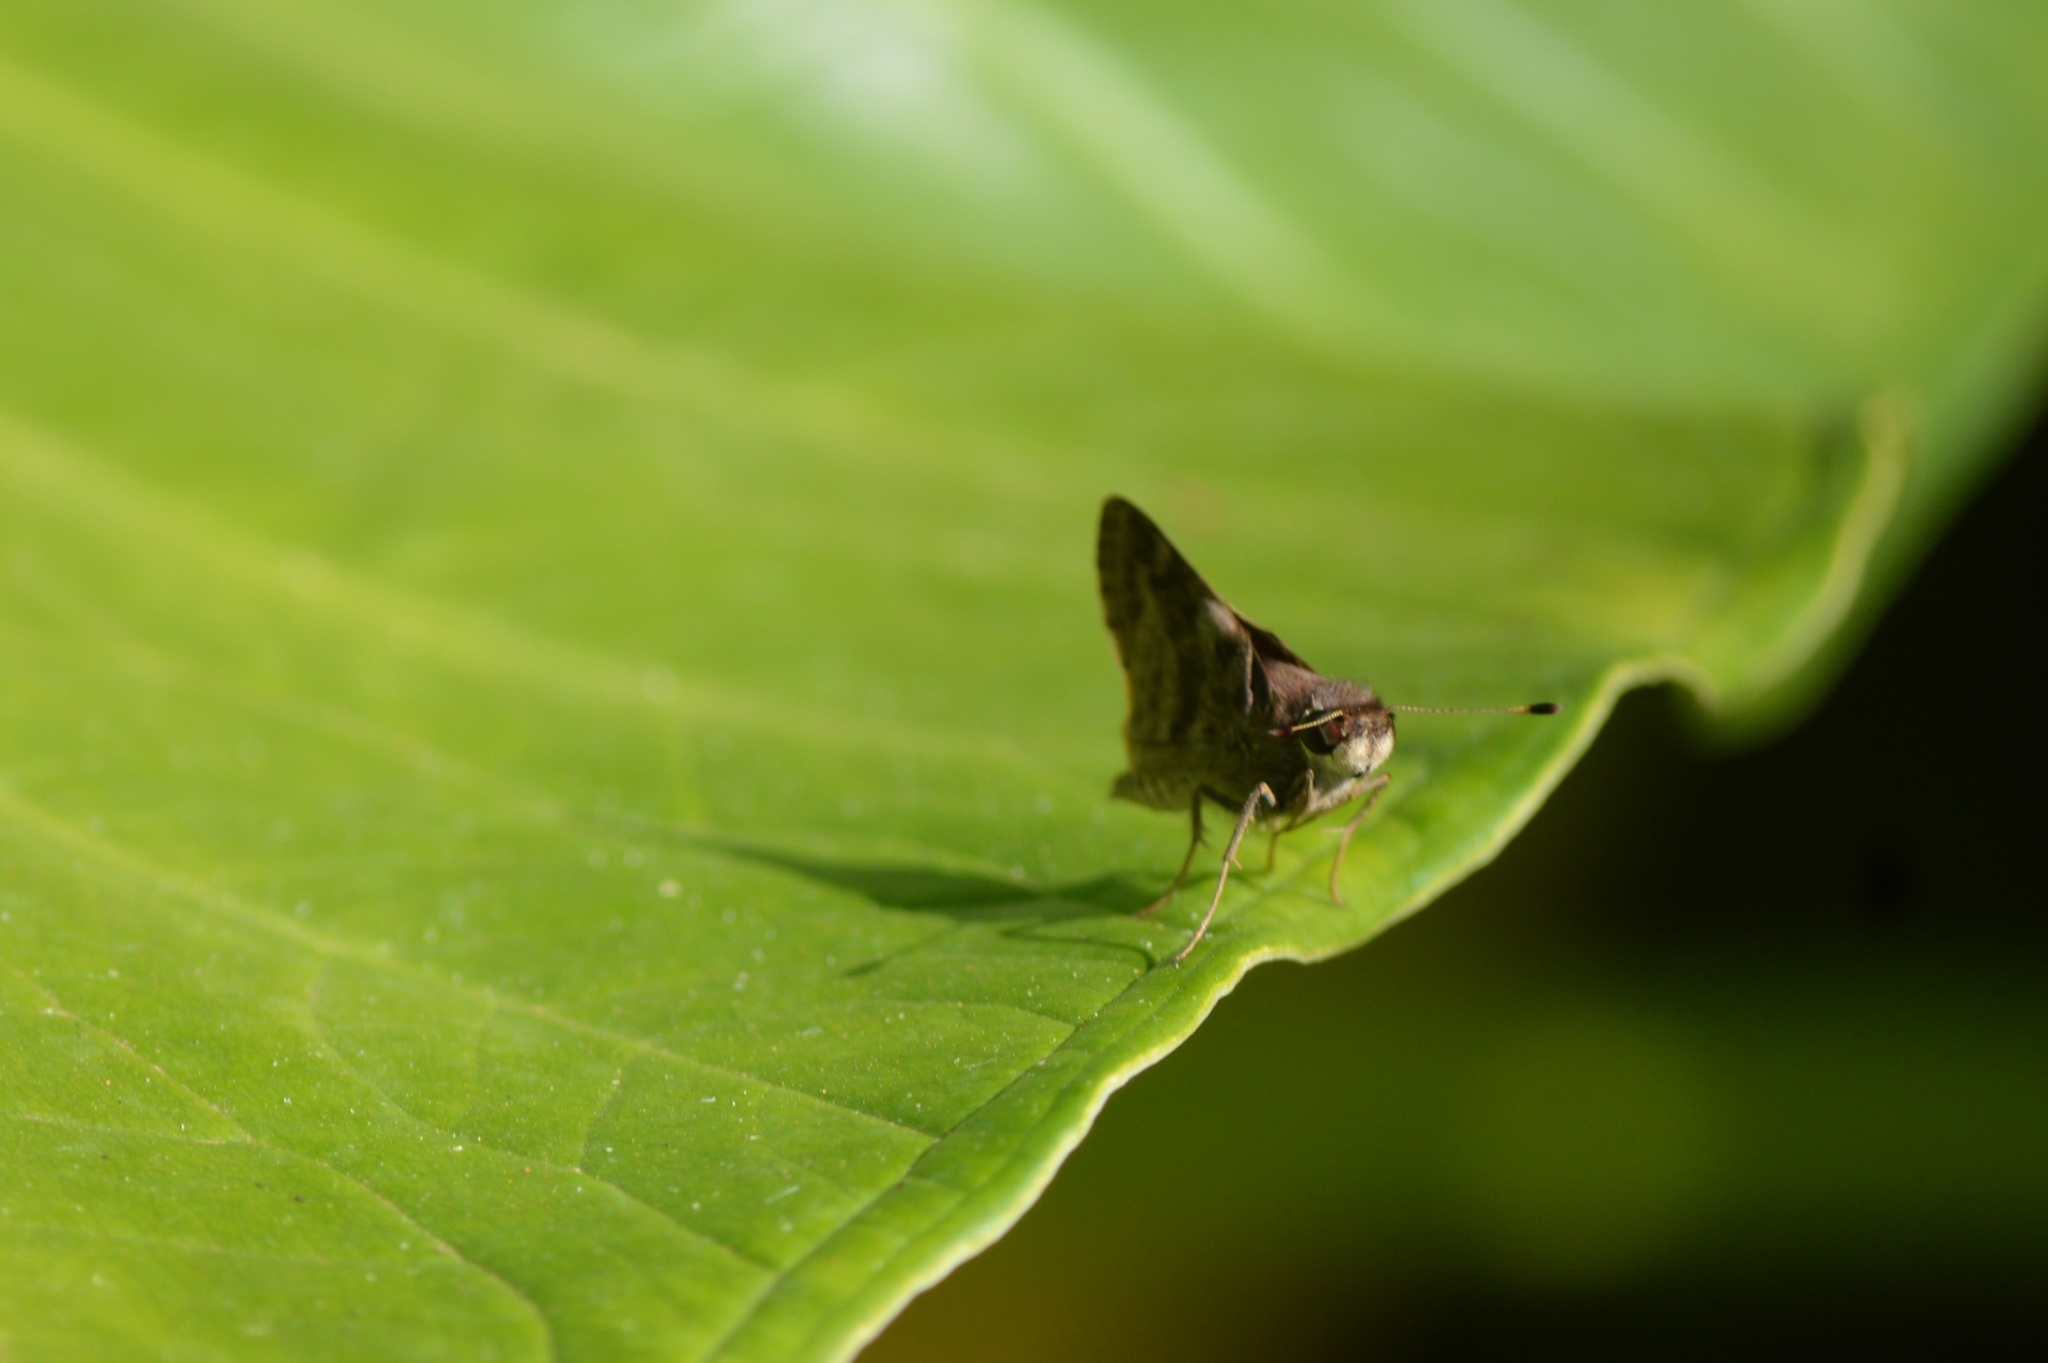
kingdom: Animalia
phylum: Arthropoda
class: Insecta
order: Lepidoptera
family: Hesperiidae
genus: Pompeius
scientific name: Pompeius pompeius
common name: Pompeius skipper
